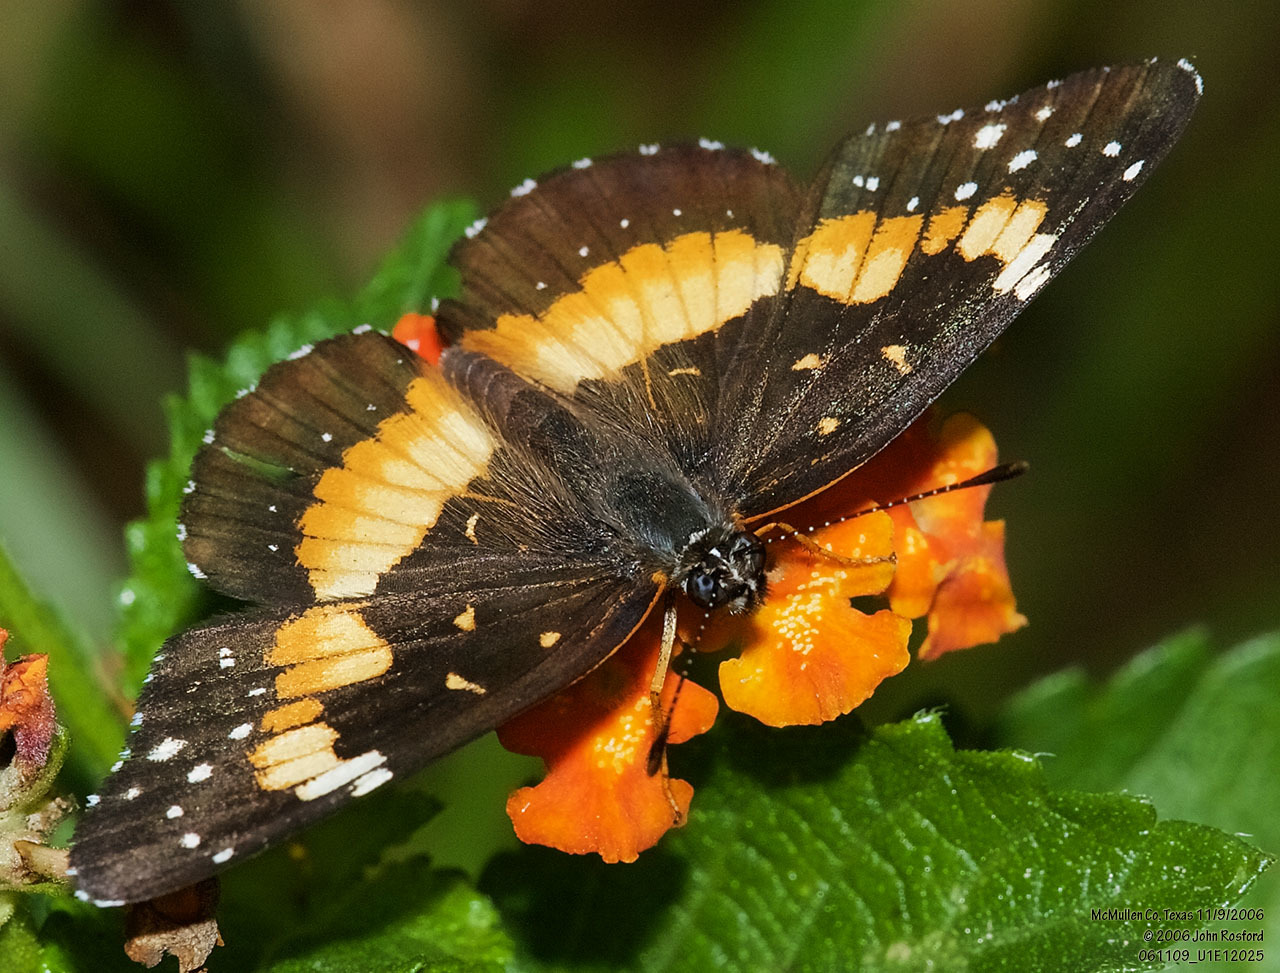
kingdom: Animalia
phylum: Arthropoda
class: Insecta
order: Lepidoptera
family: Nymphalidae
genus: Chlosyne
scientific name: Chlosyne lacinia
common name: Bordered patch
